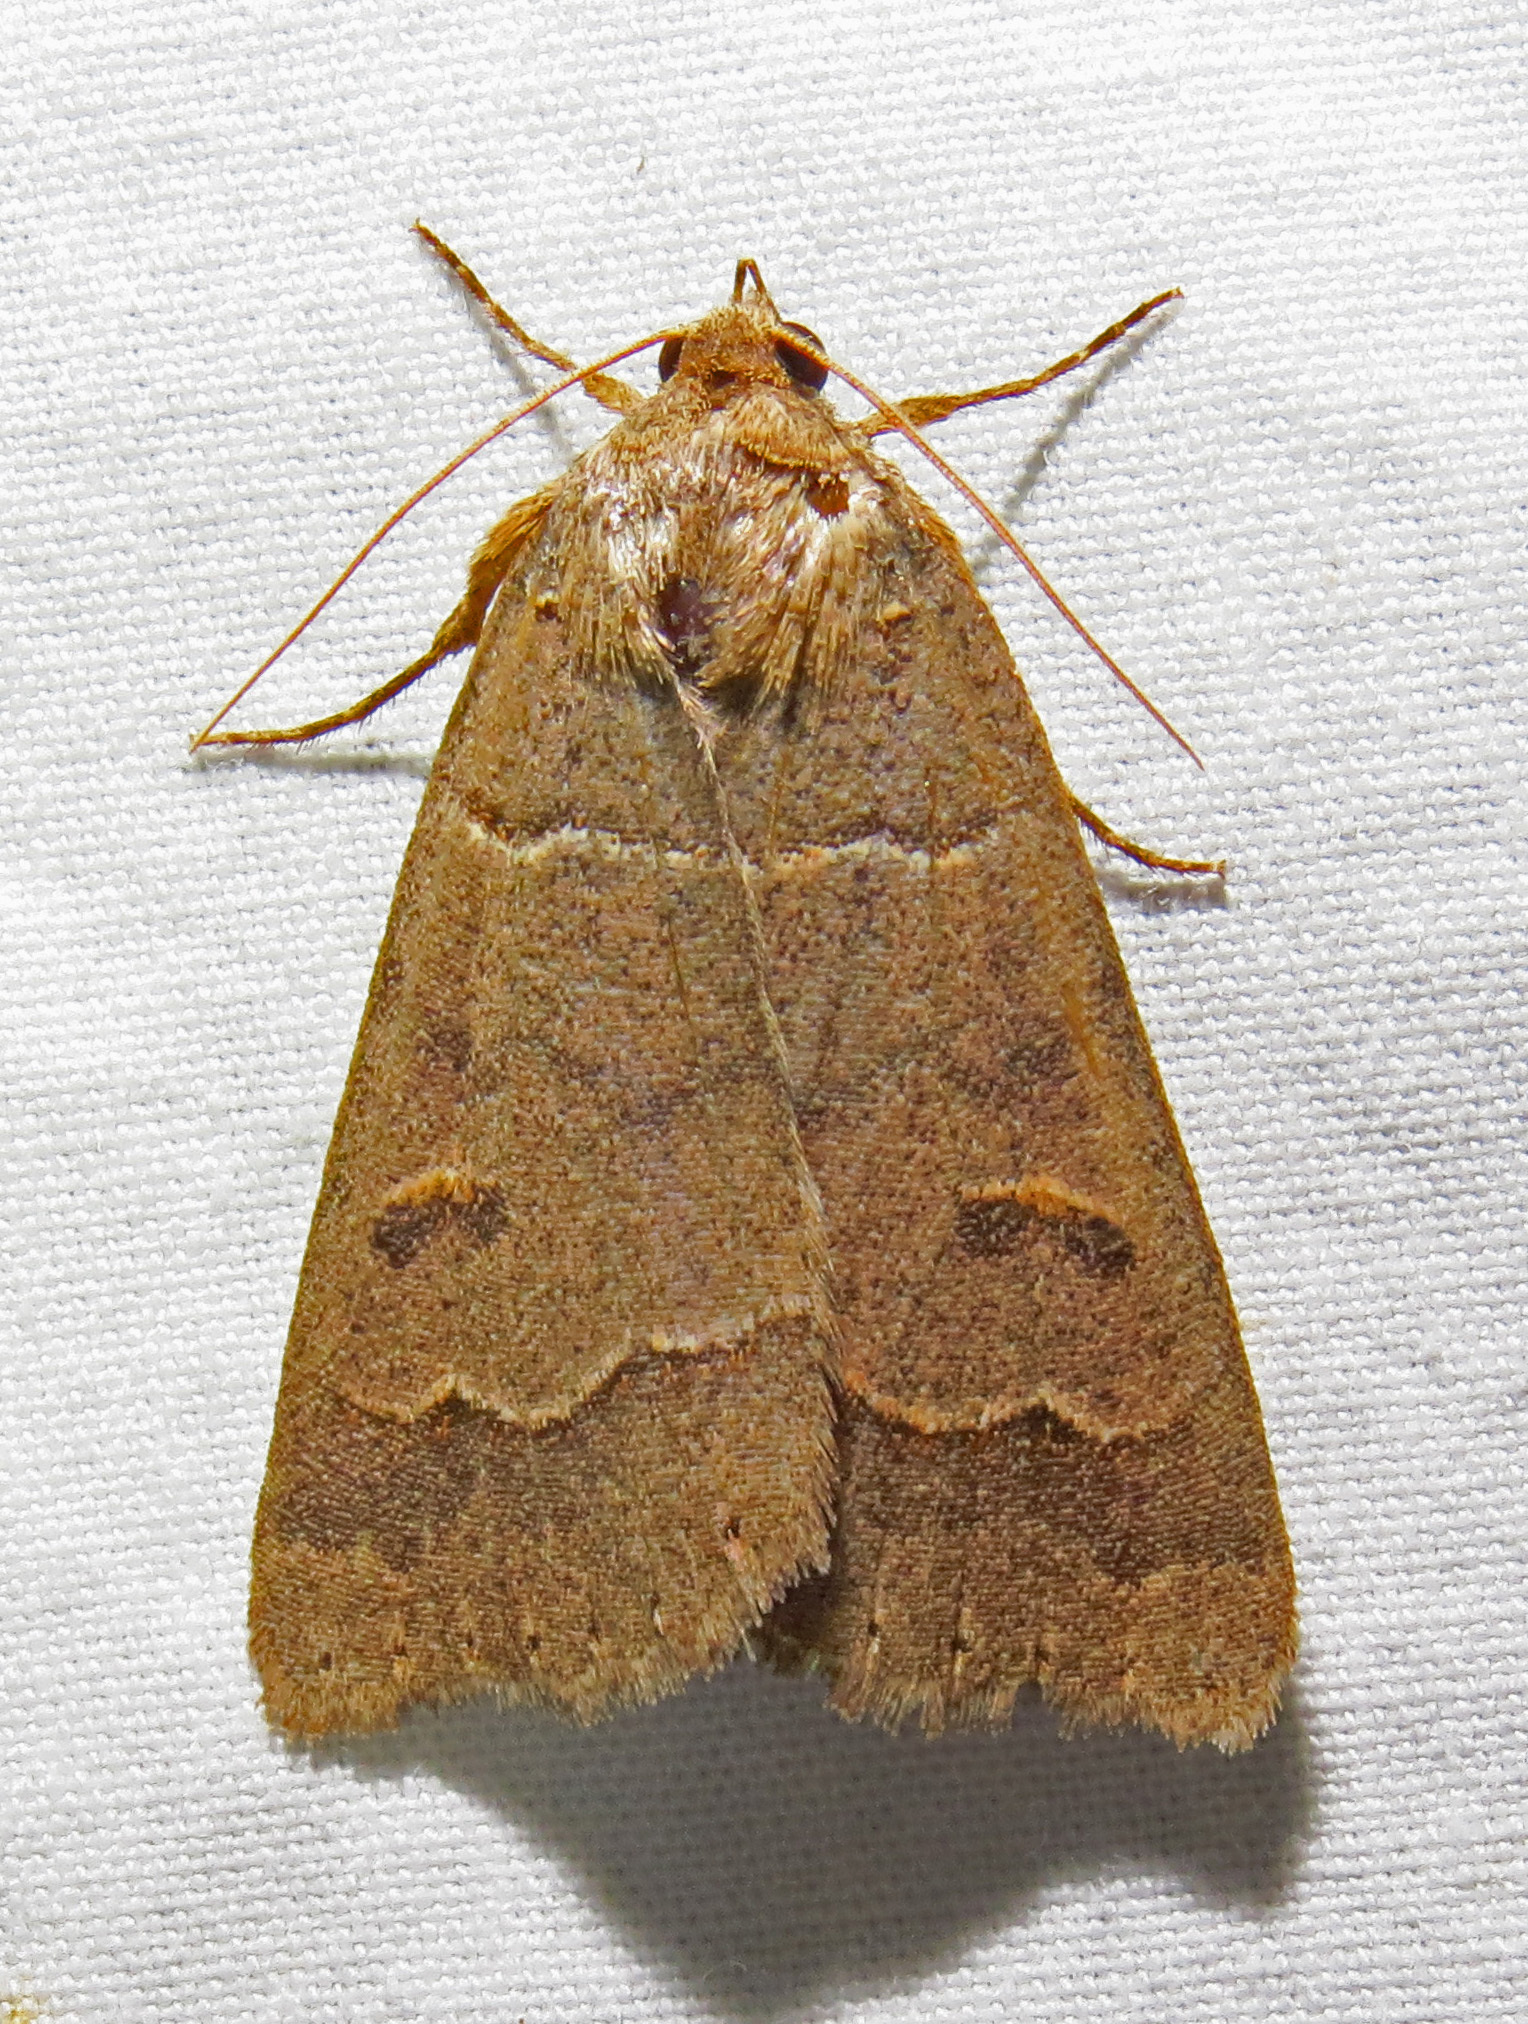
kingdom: Animalia
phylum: Arthropoda
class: Insecta
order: Lepidoptera
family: Erebidae
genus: Phoberia
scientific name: Phoberia atomaris
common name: Common oak moth
